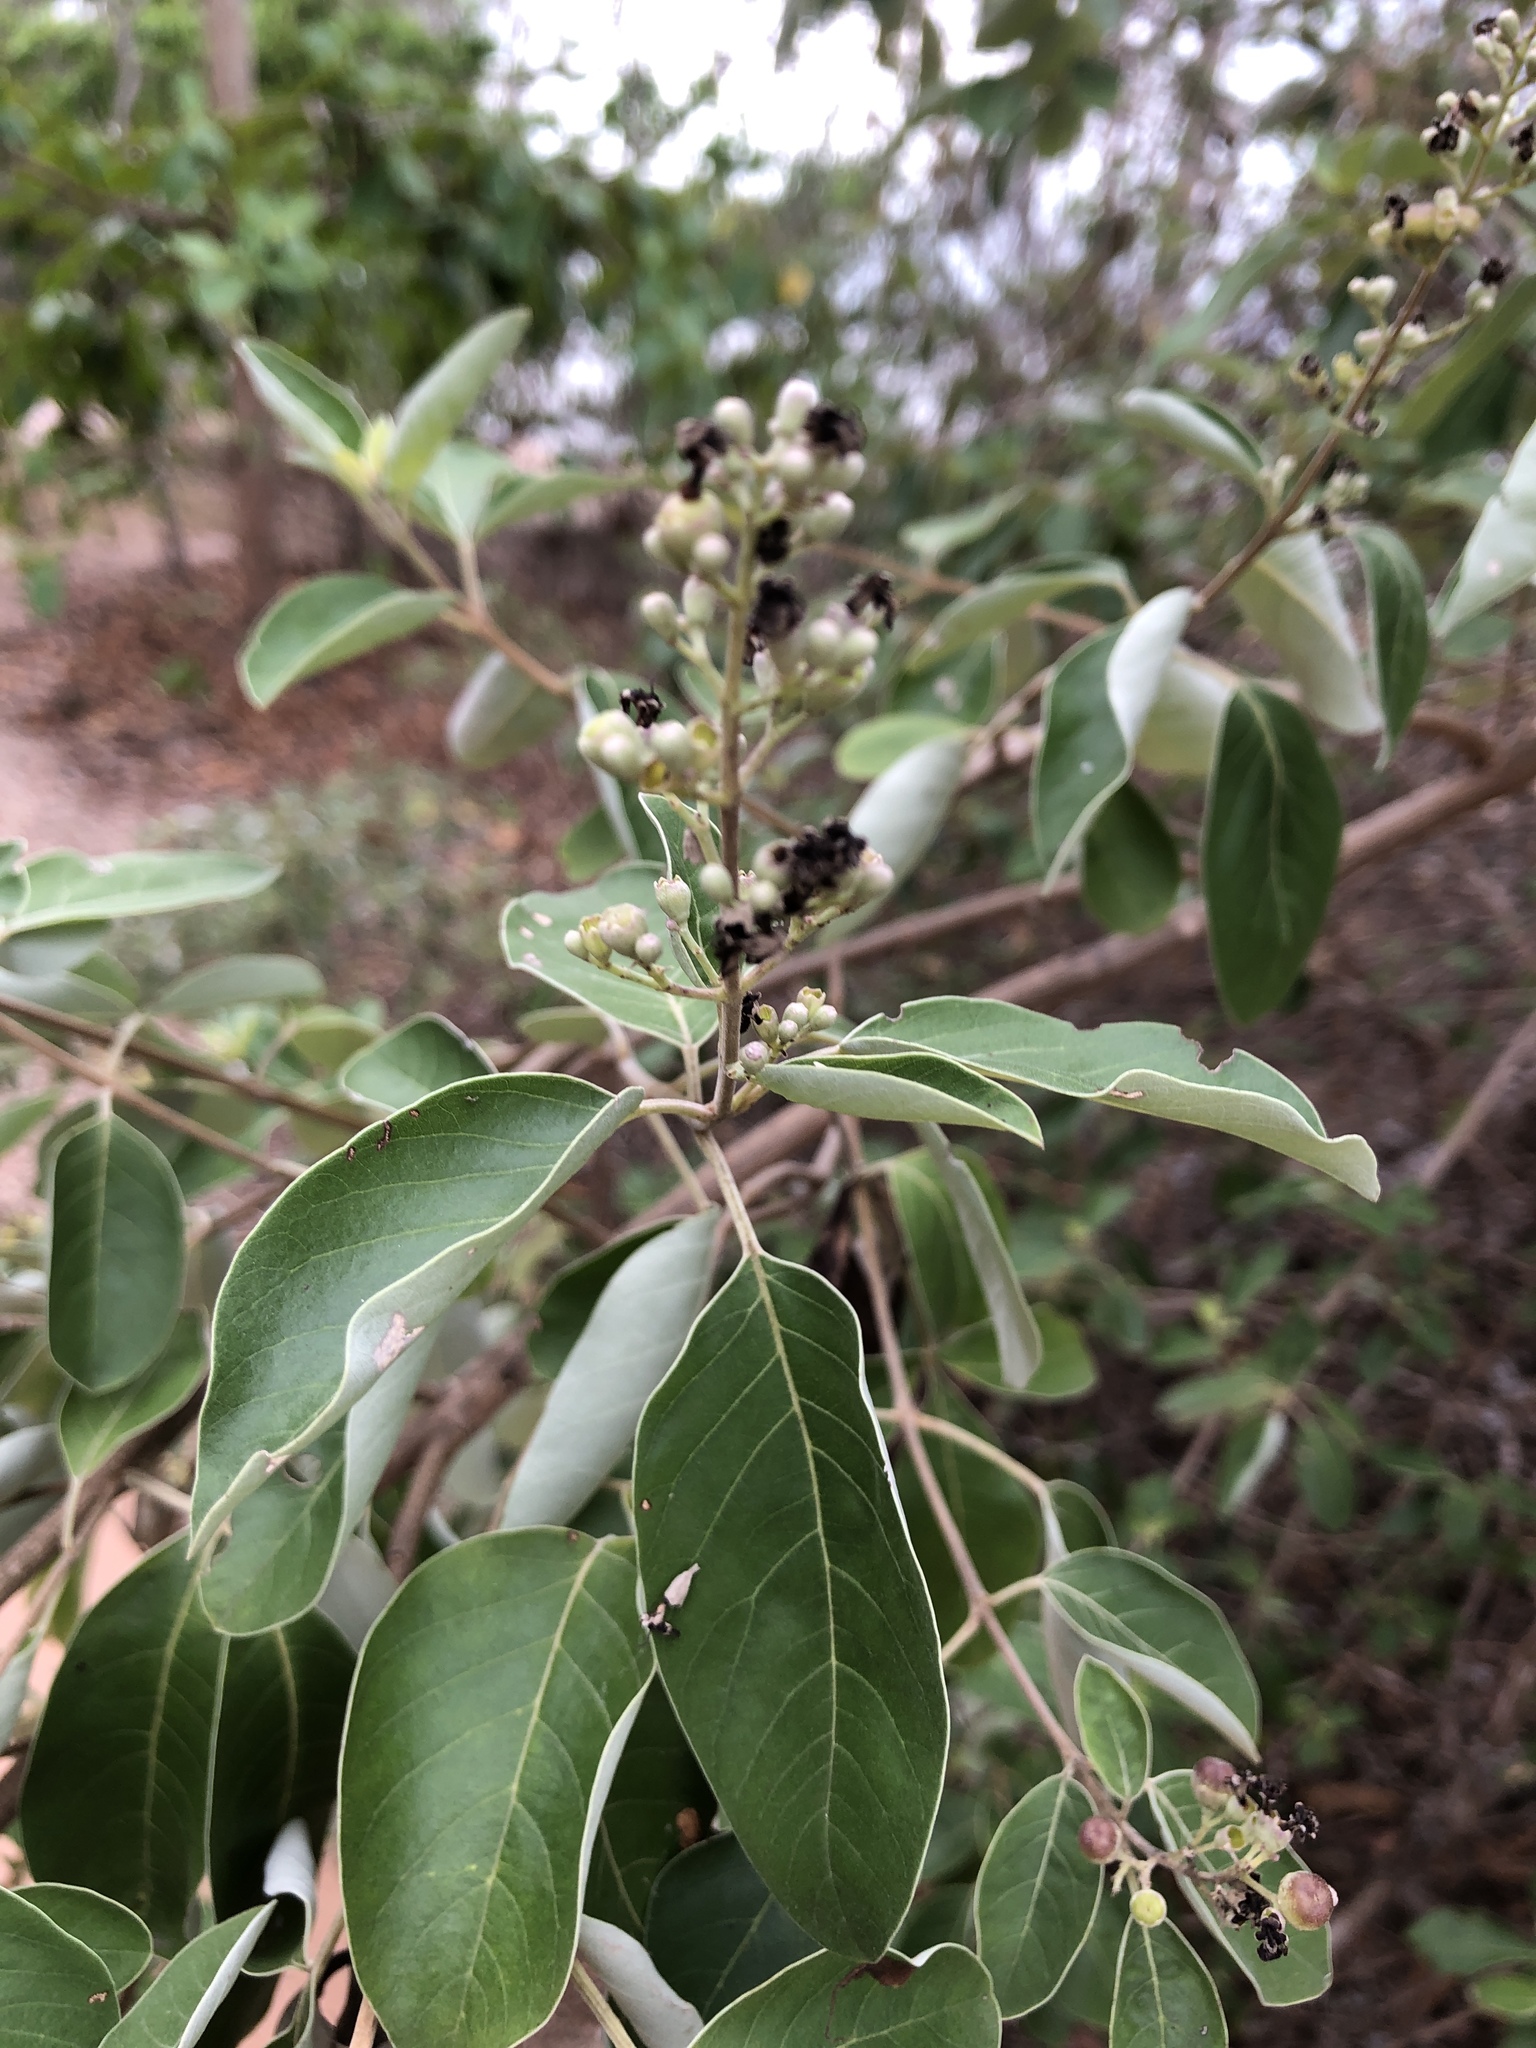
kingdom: Plantae
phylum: Tracheophyta
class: Magnoliopsida
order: Lamiales
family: Lamiaceae
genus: Vitex
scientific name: Vitex rotundifolia
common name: Beach vitex
